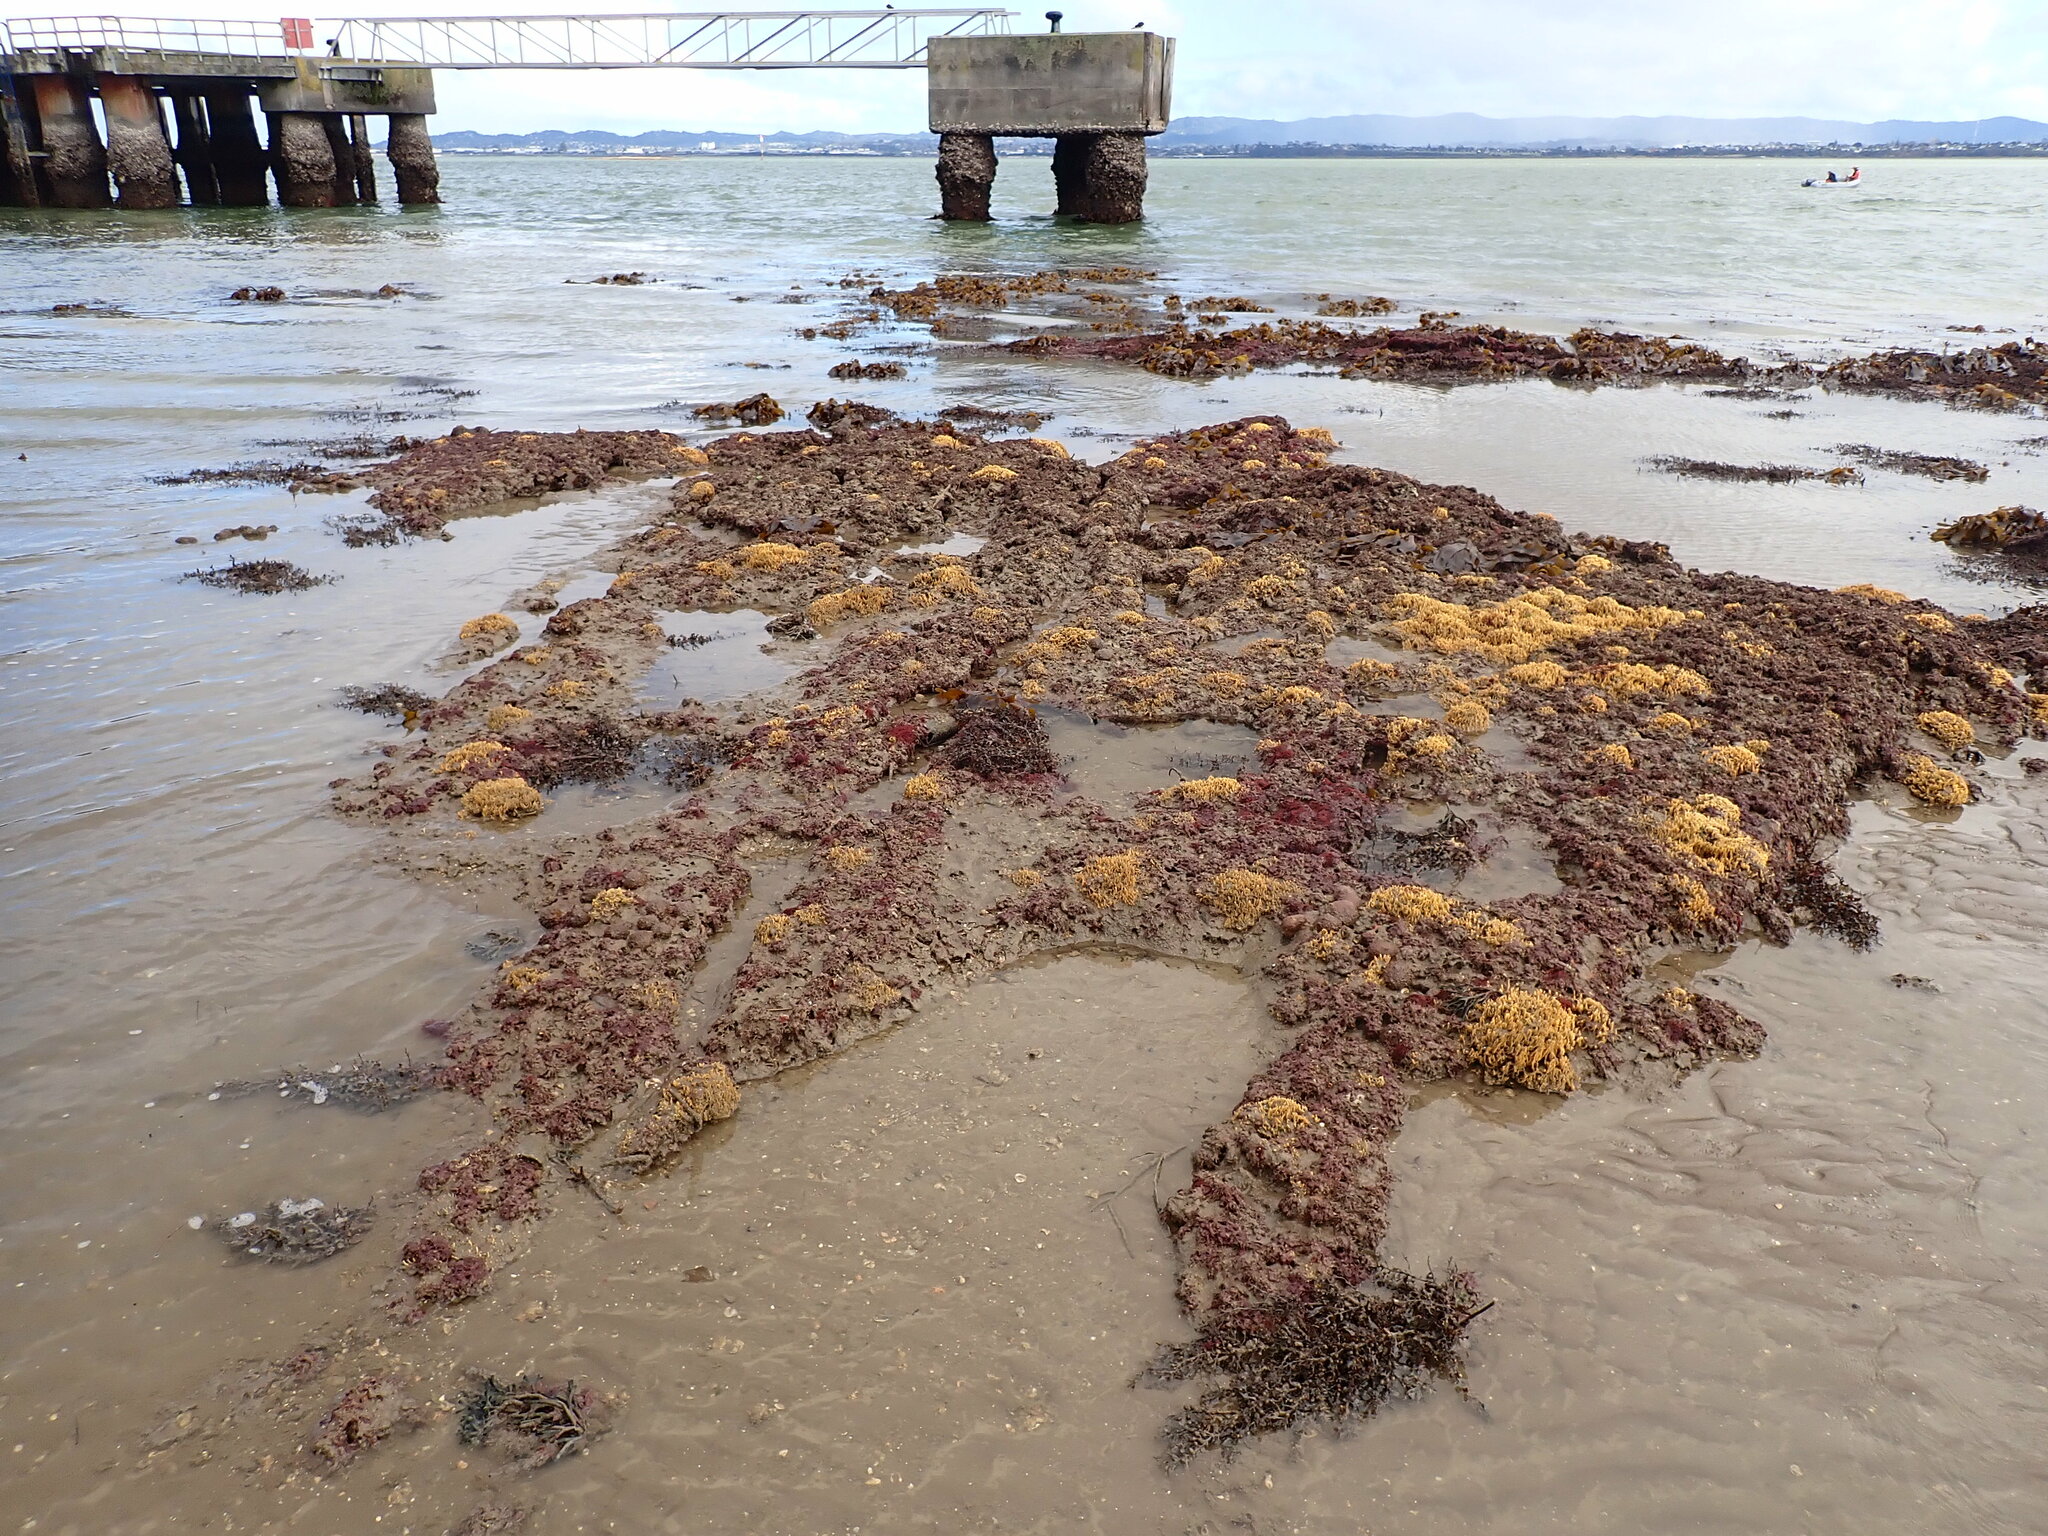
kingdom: Animalia
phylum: Porifera
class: Demospongiae
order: Suberitida
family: Halichondriidae
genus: Ciocalypta
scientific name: Ciocalypta polymastia
